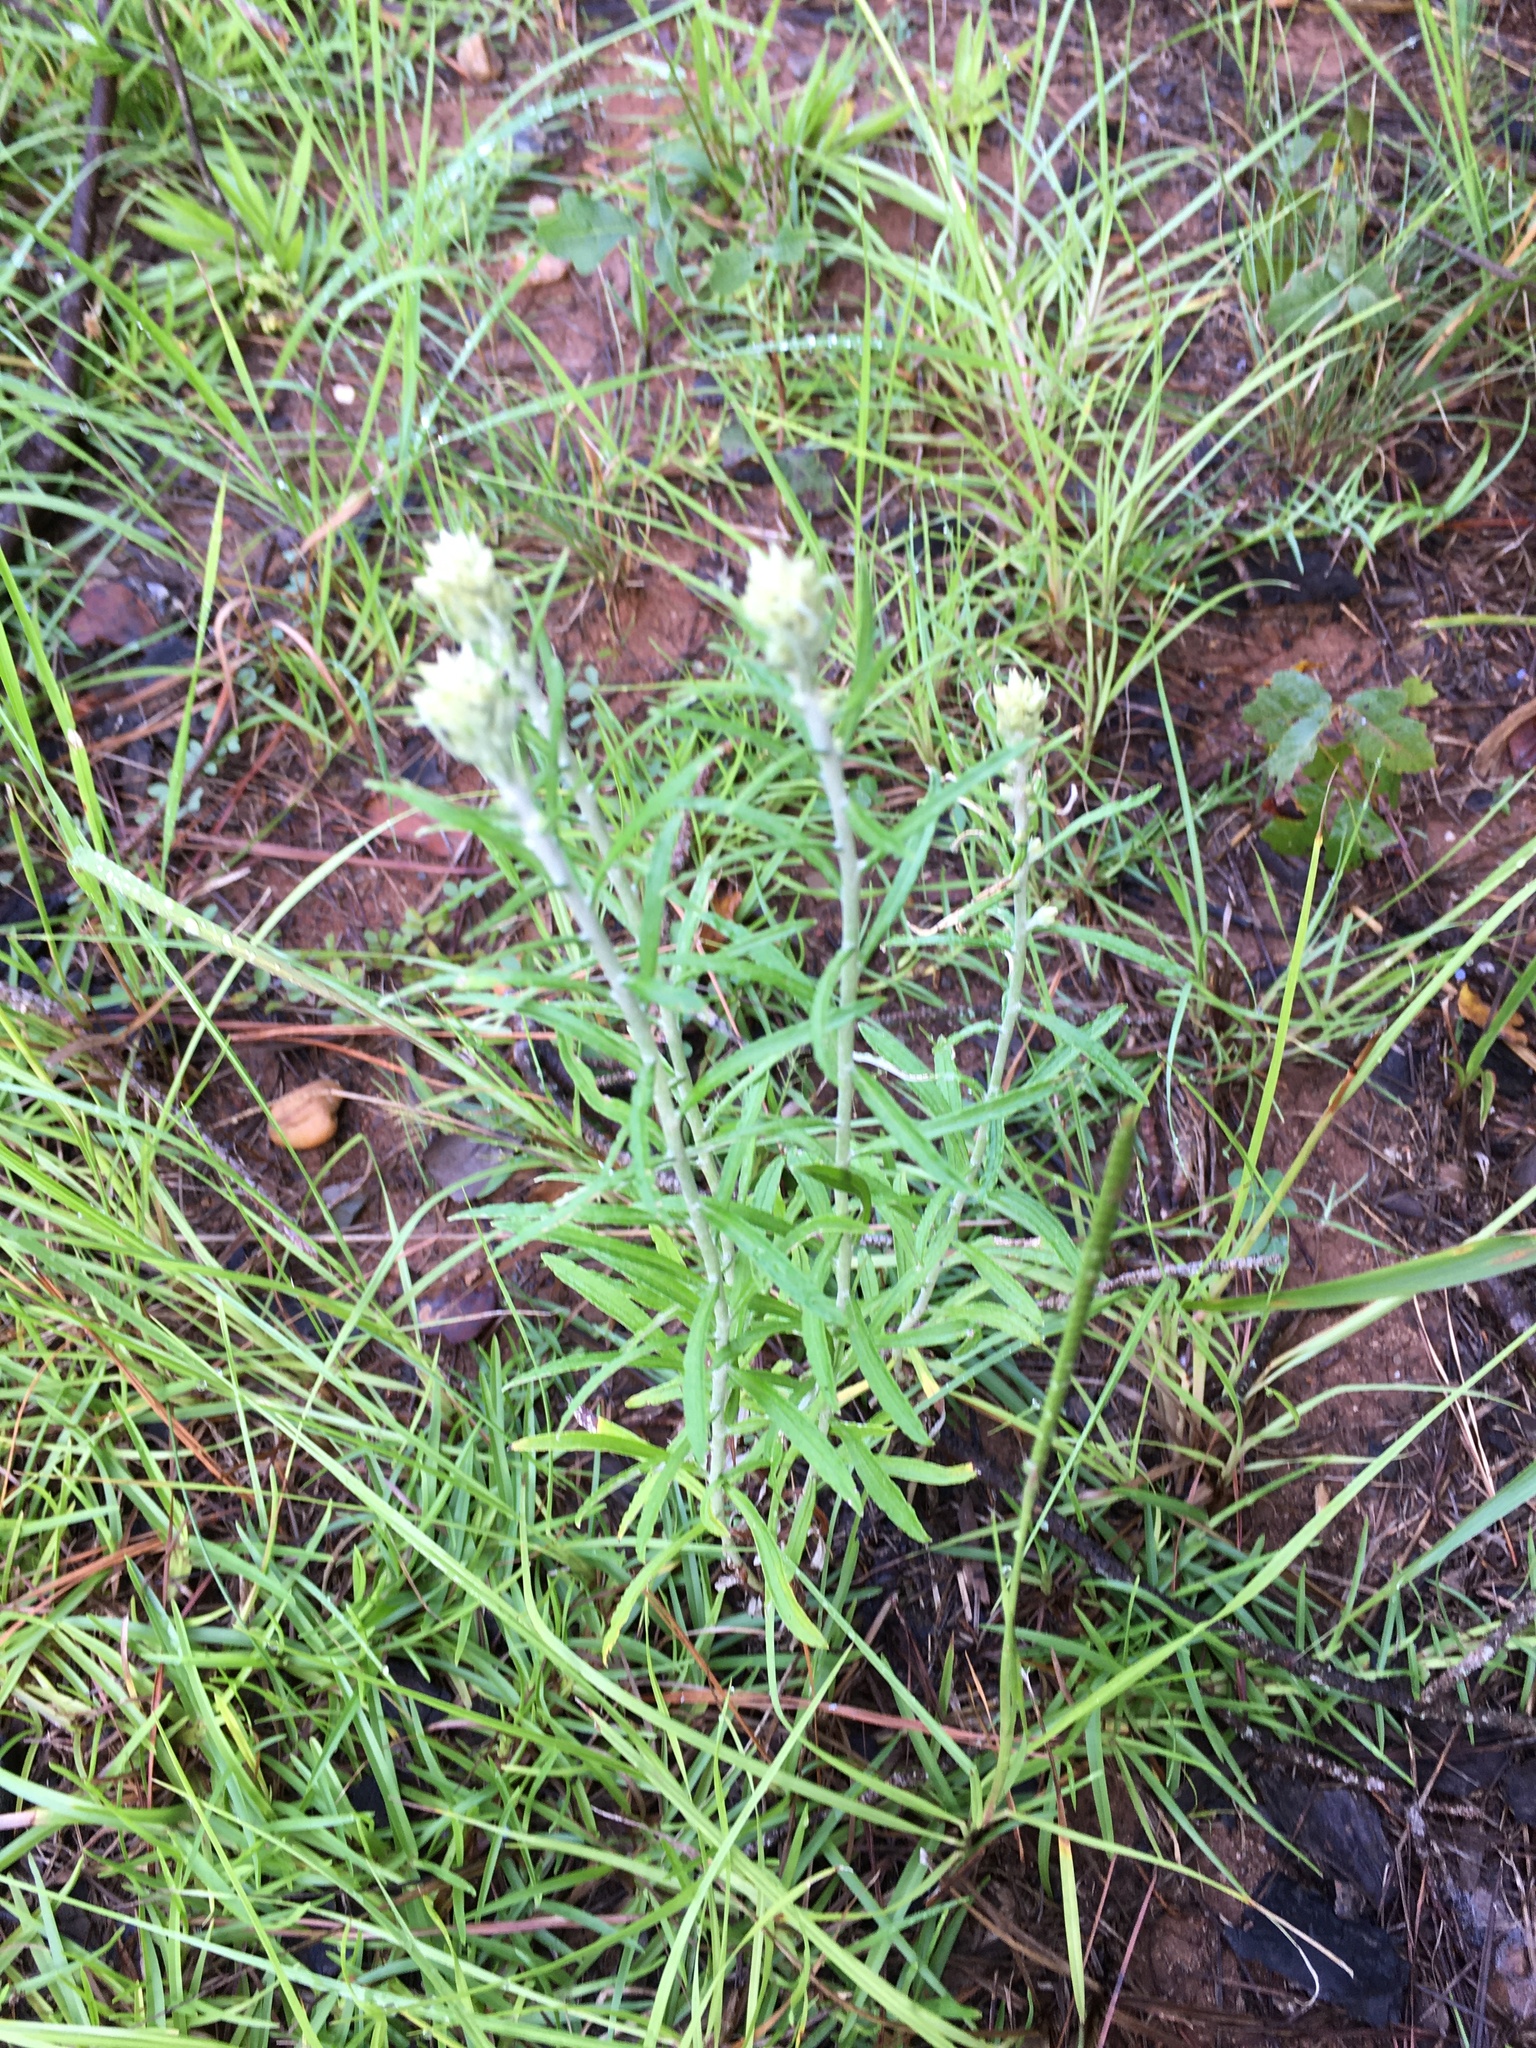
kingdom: Plantae
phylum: Tracheophyta
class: Magnoliopsida
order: Asterales
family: Asteraceae
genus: Pseudognaphalium
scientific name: Pseudognaphalium obtusifolium
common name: Eastern rabbit-tobacco
